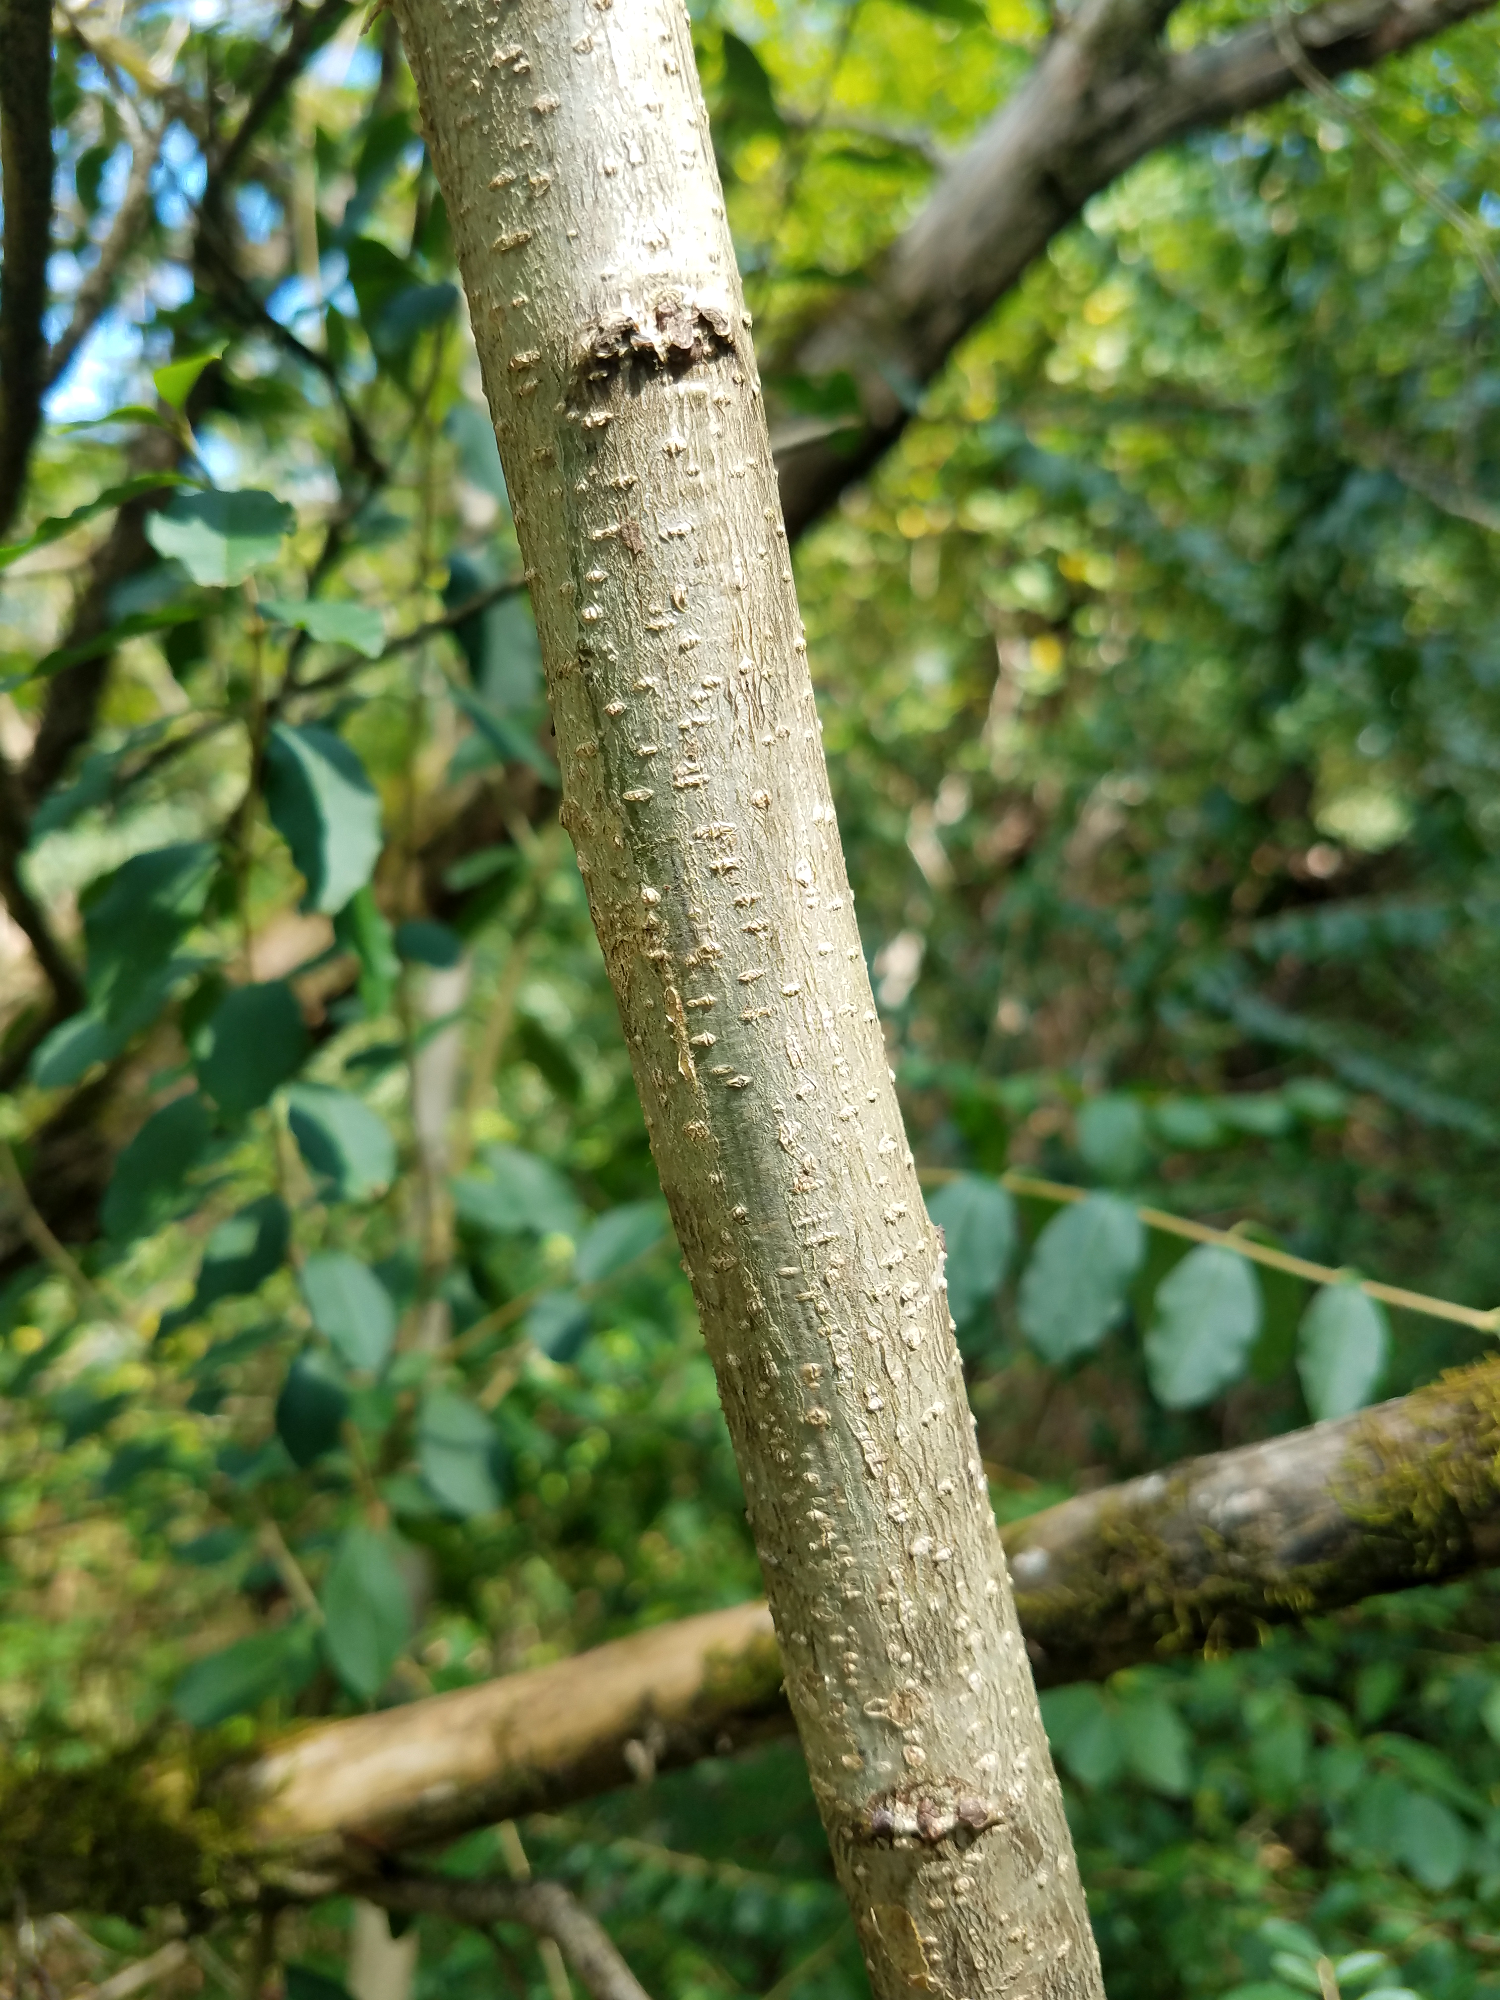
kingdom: Plantae
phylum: Tracheophyta
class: Magnoliopsida
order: Fabales
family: Fabaceae
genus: Albizia
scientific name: Albizia julibrissin
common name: Silktree
